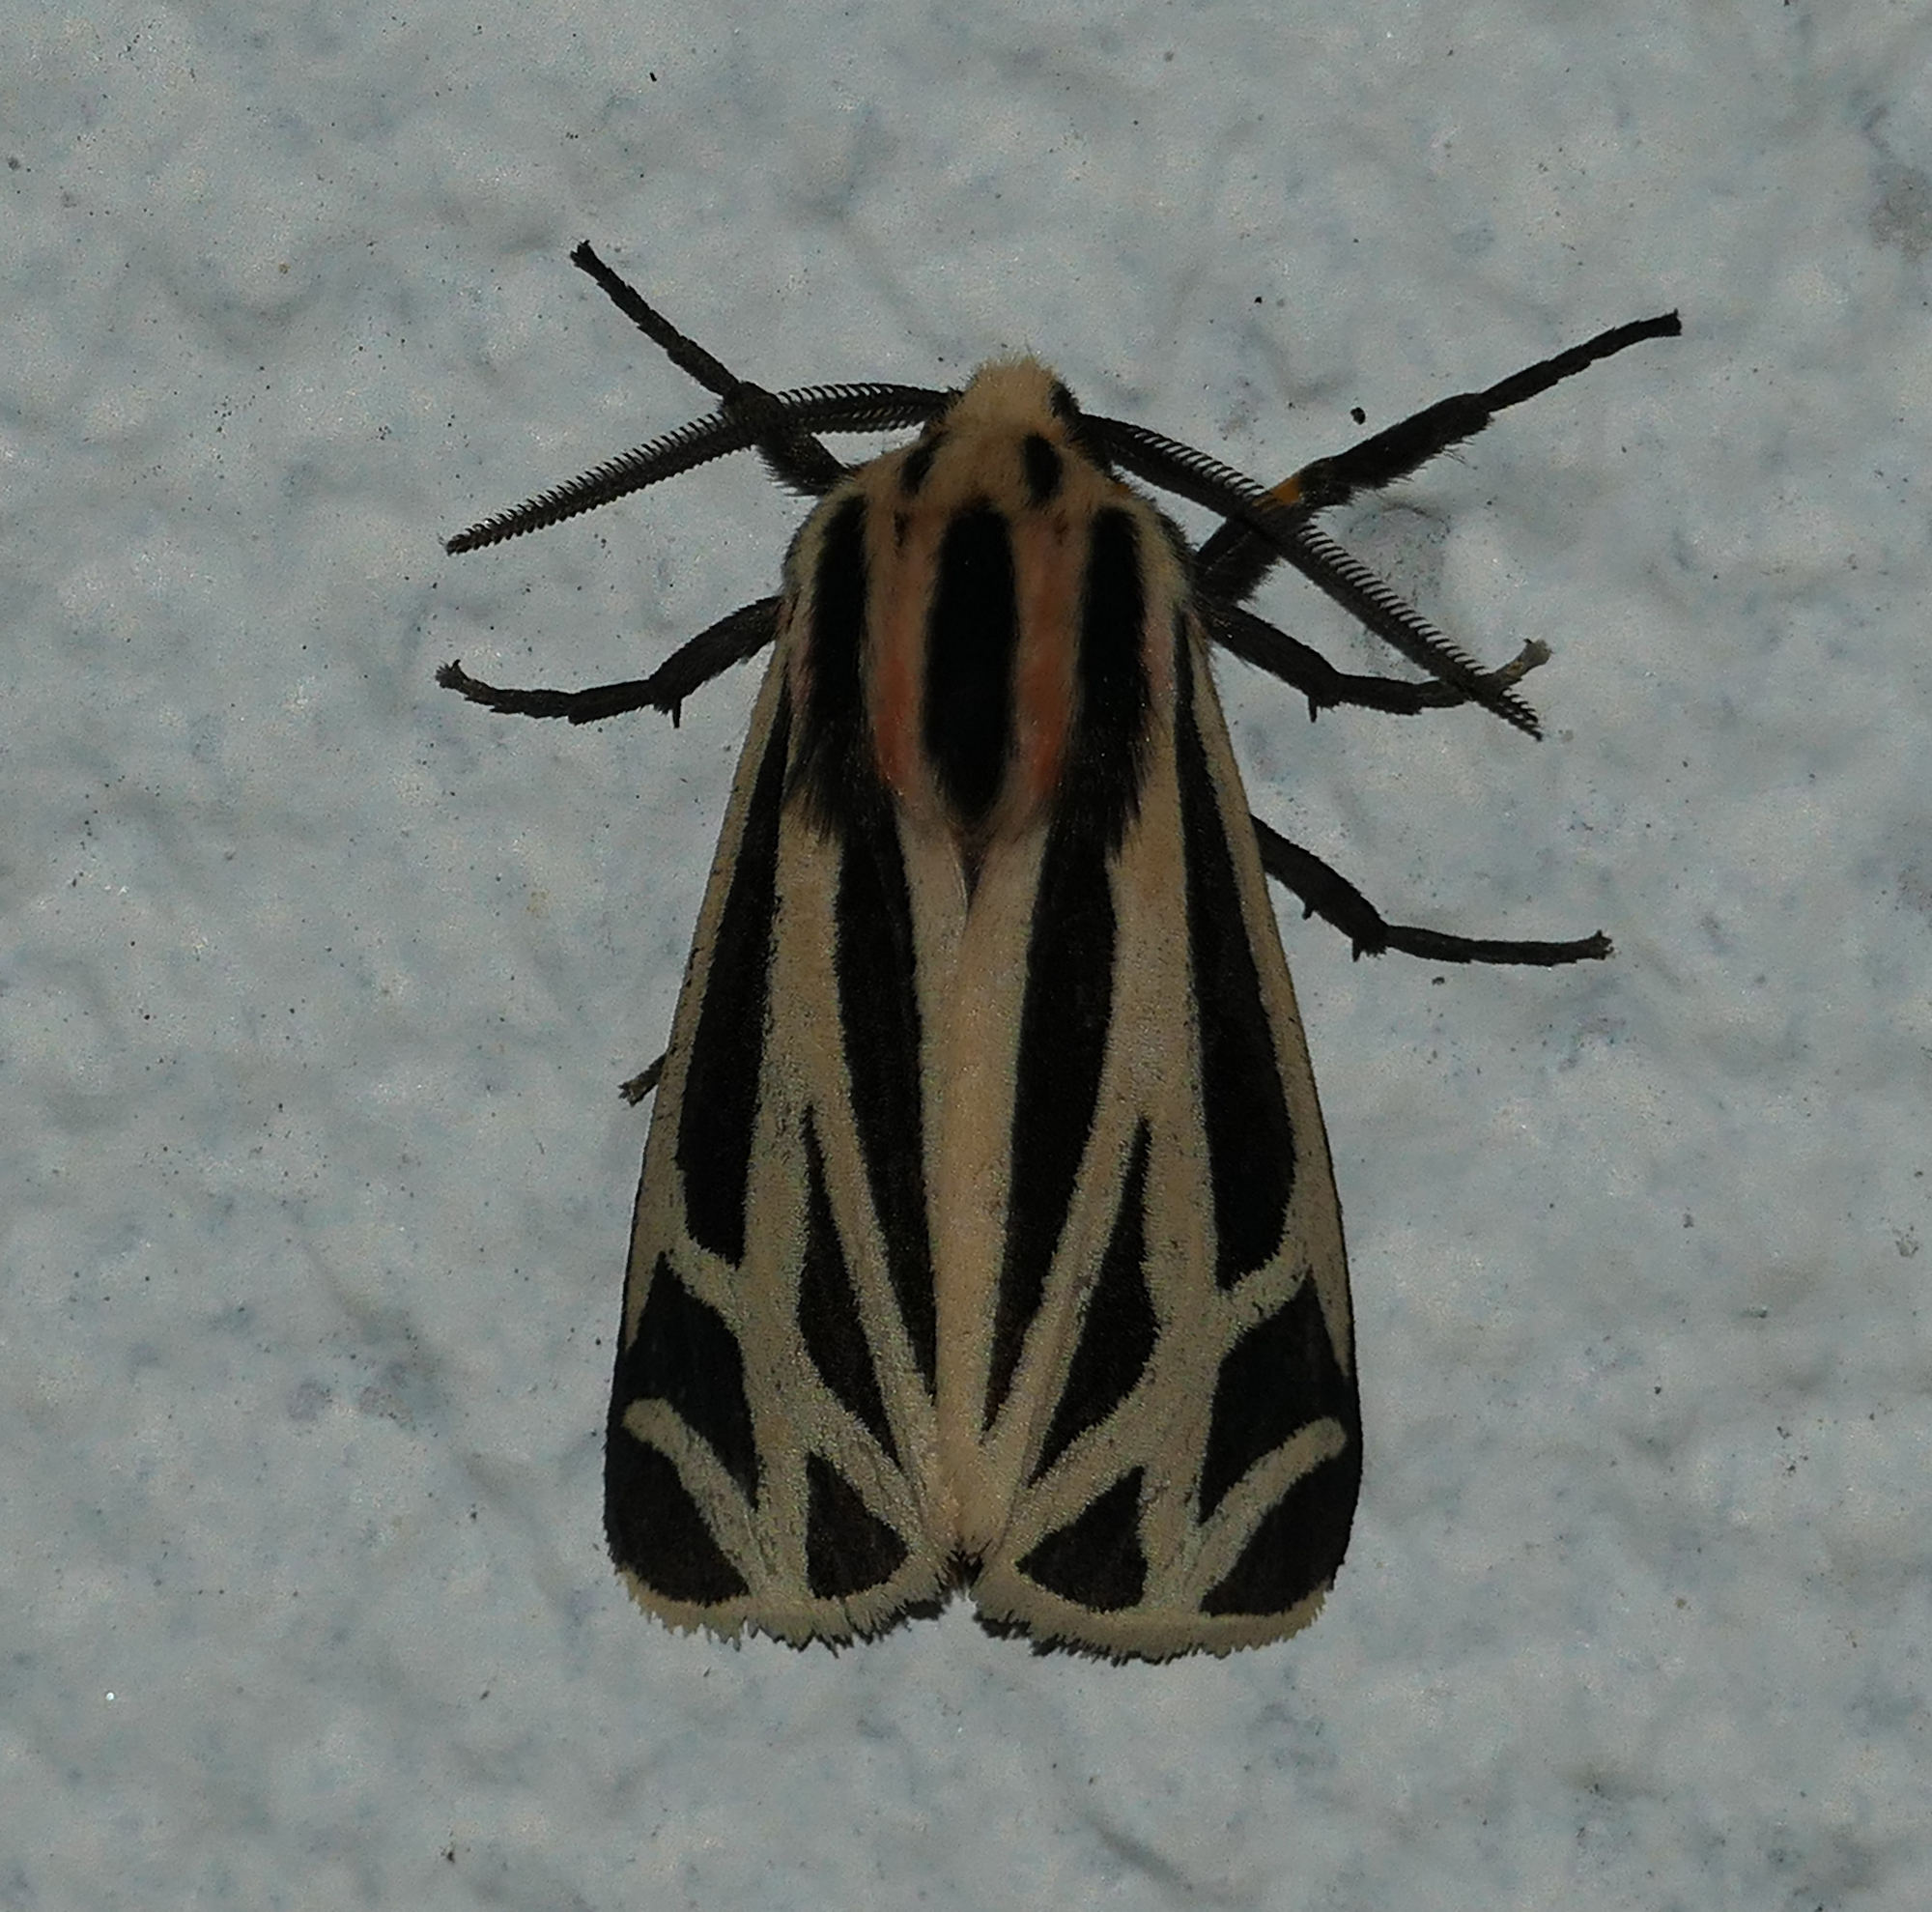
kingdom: Animalia
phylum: Arthropoda
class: Insecta
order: Lepidoptera
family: Erebidae
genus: Apantesis
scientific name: Apantesis phalerata
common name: Harnessed tiger moth
